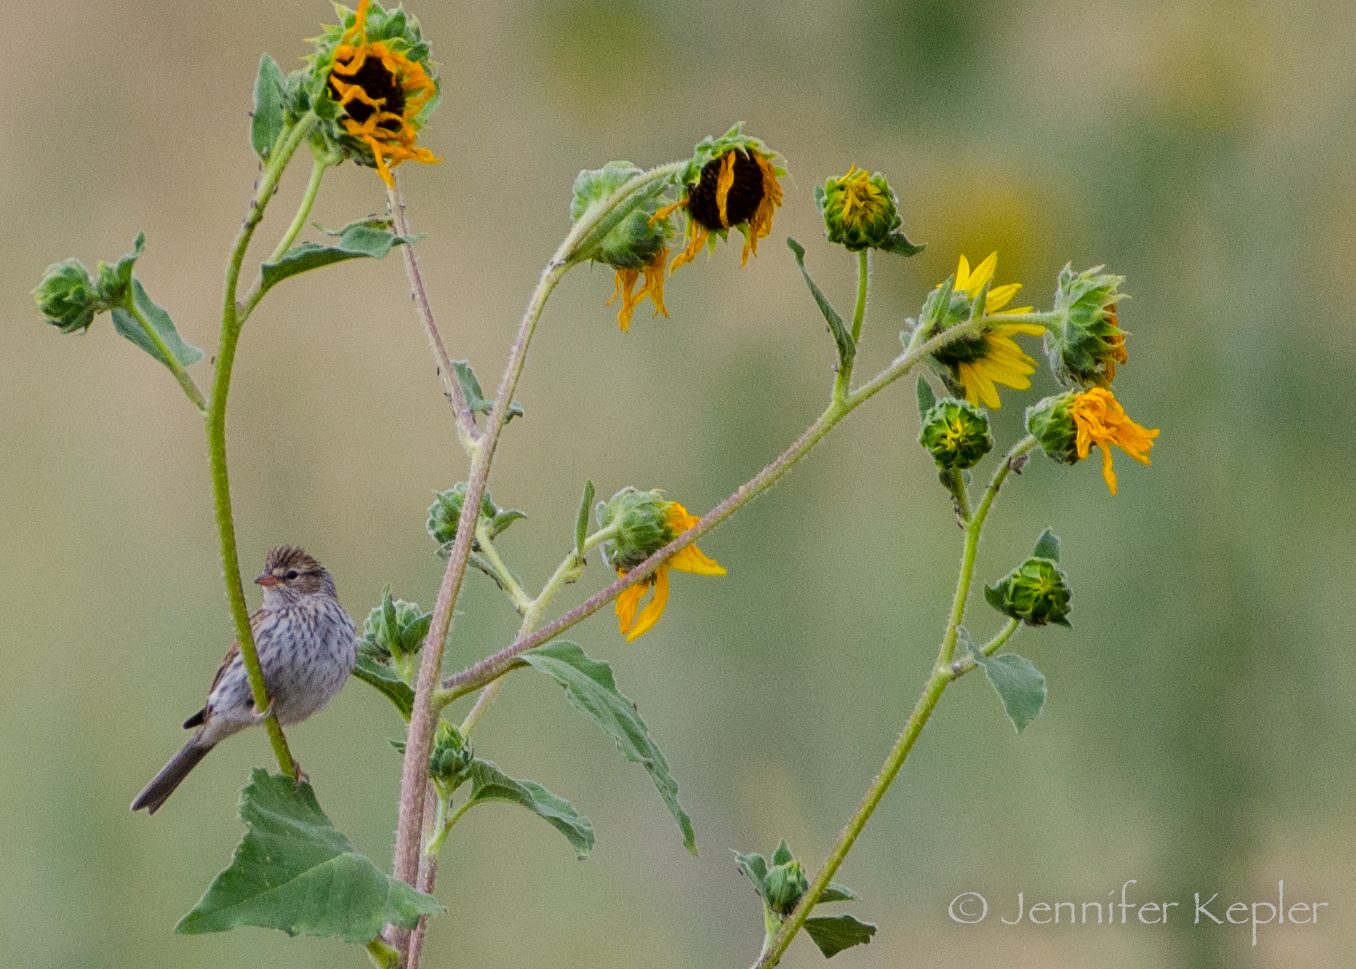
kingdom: Animalia
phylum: Chordata
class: Aves
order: Passeriformes
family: Passerellidae
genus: Spizella
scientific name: Spizella passerina
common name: Chipping sparrow
